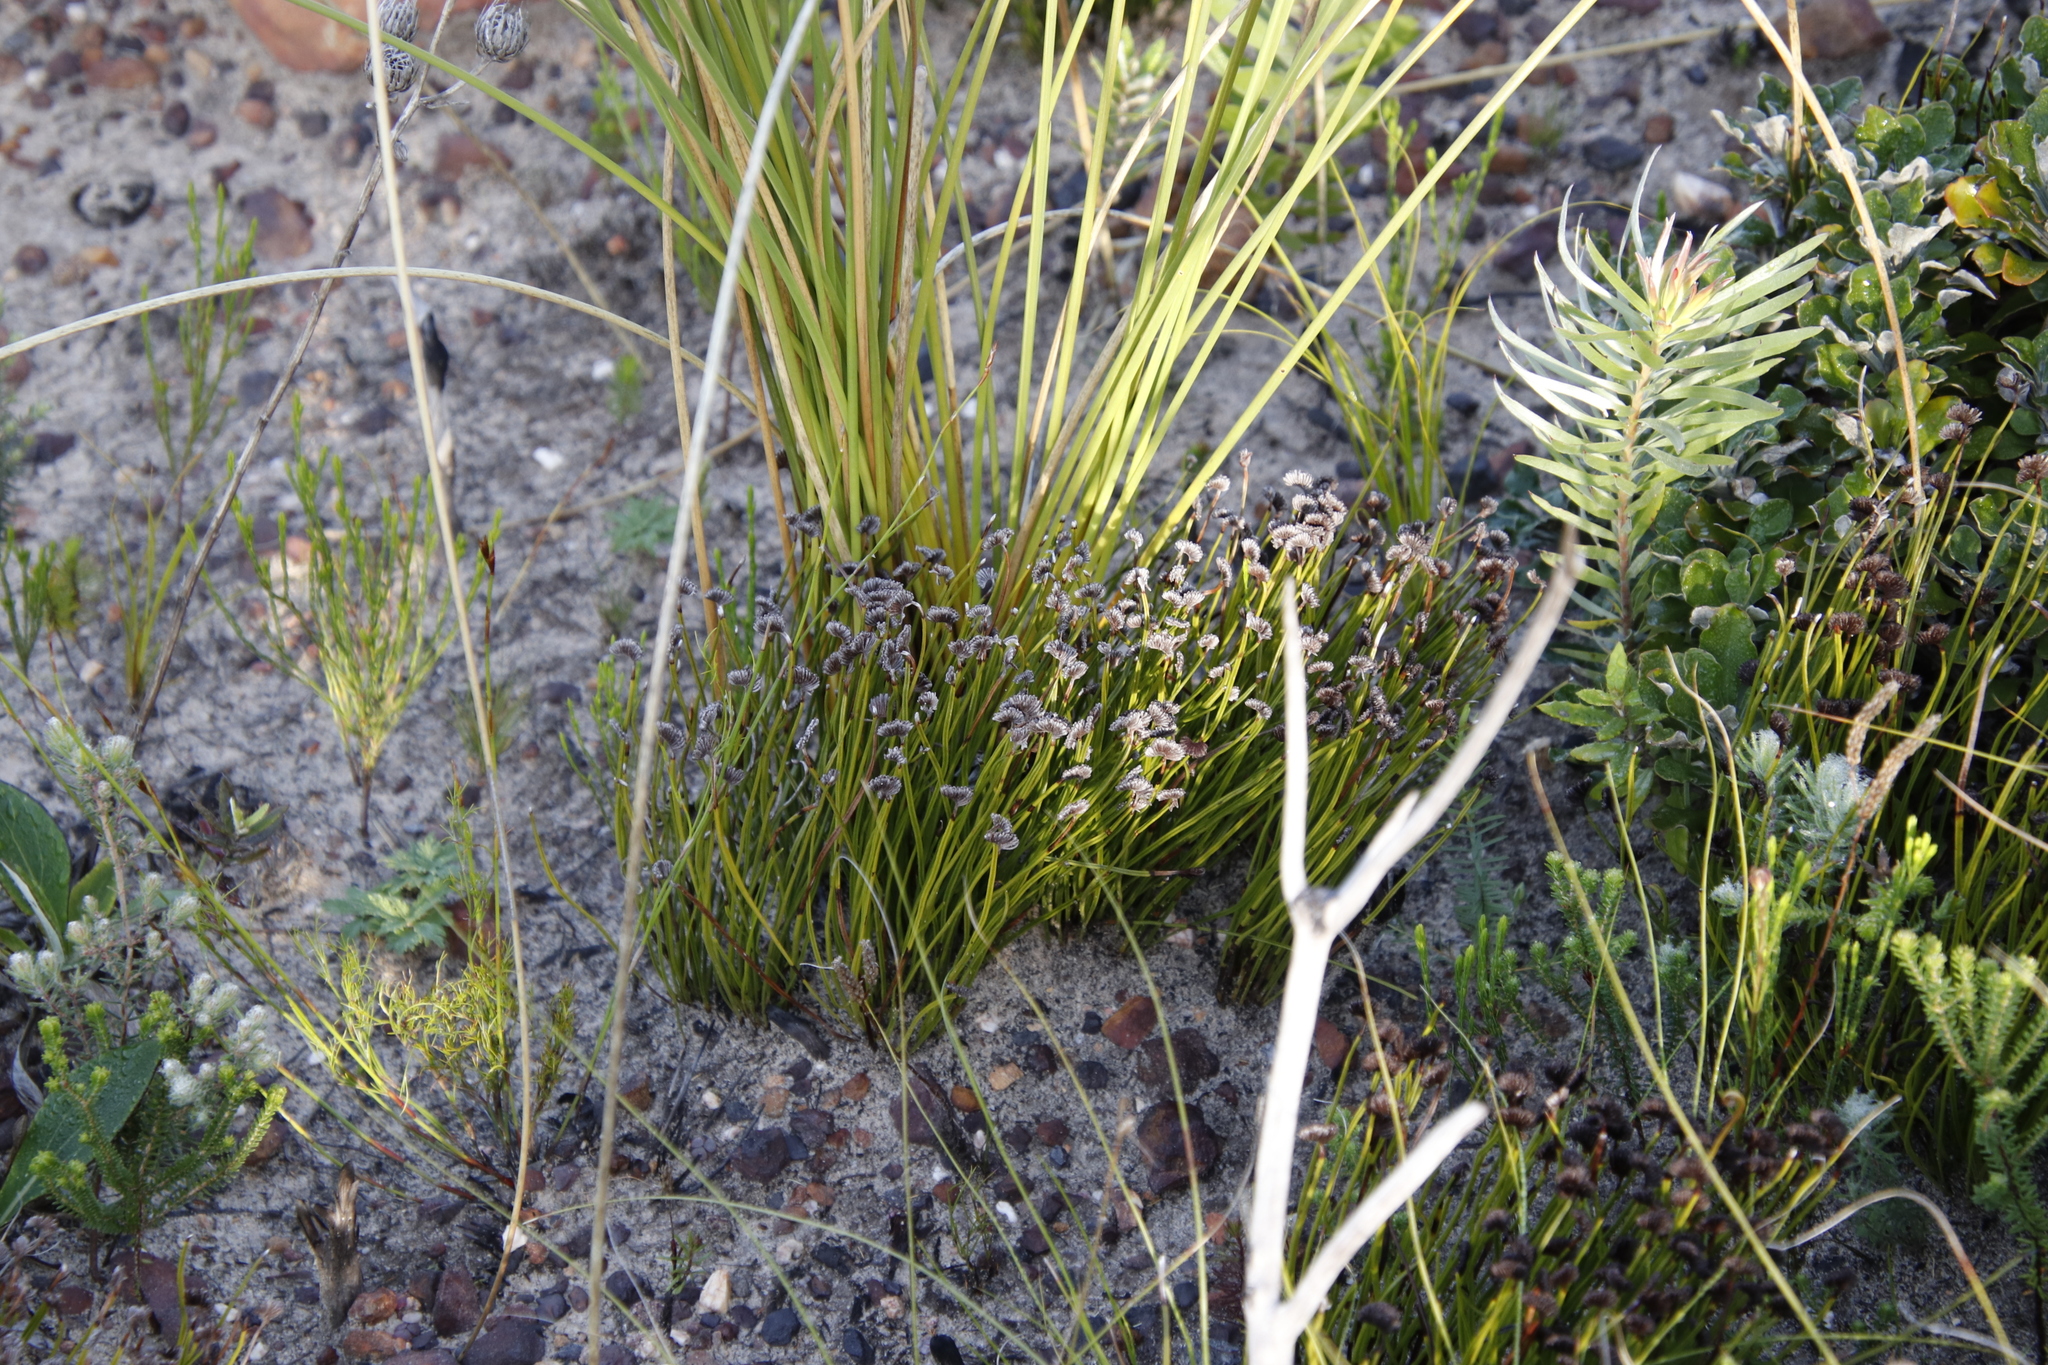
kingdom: Plantae
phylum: Tracheophyta
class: Polypodiopsida
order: Schizaeales
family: Schizaeaceae
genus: Schizaea
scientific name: Schizaea pectinata
